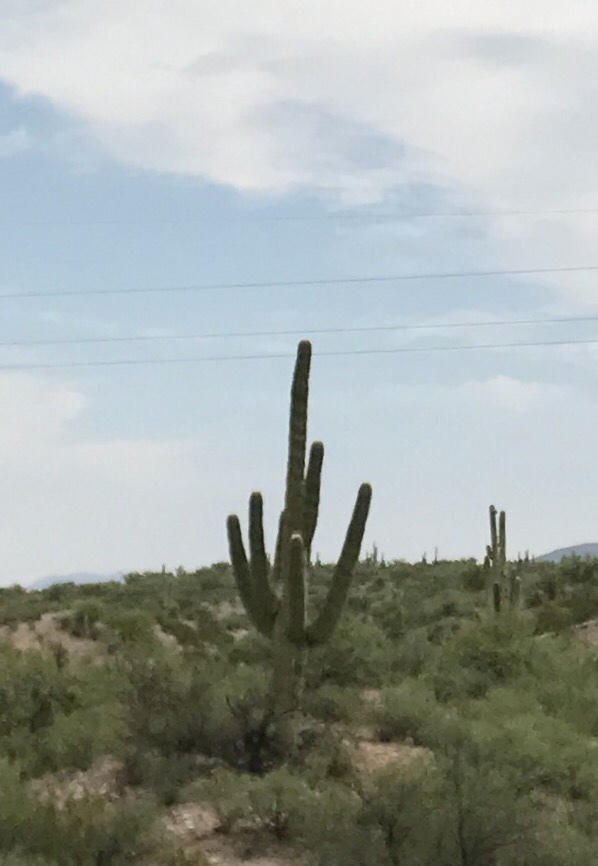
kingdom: Plantae
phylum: Tracheophyta
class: Magnoliopsida
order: Caryophyllales
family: Cactaceae
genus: Carnegiea
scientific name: Carnegiea gigantea
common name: Saguaro
